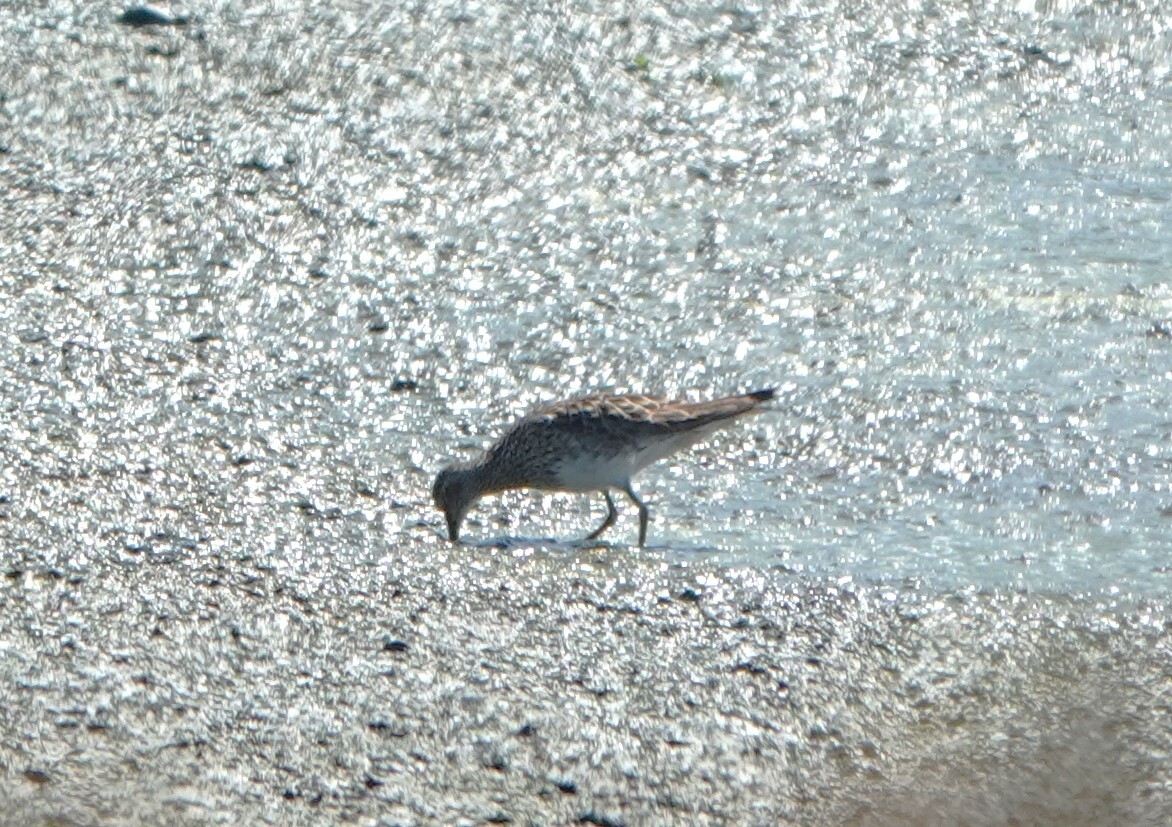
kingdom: Animalia
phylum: Chordata
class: Aves
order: Charadriiformes
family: Scolopacidae
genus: Calidris
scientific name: Calidris melanotos
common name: Pectoral sandpiper
